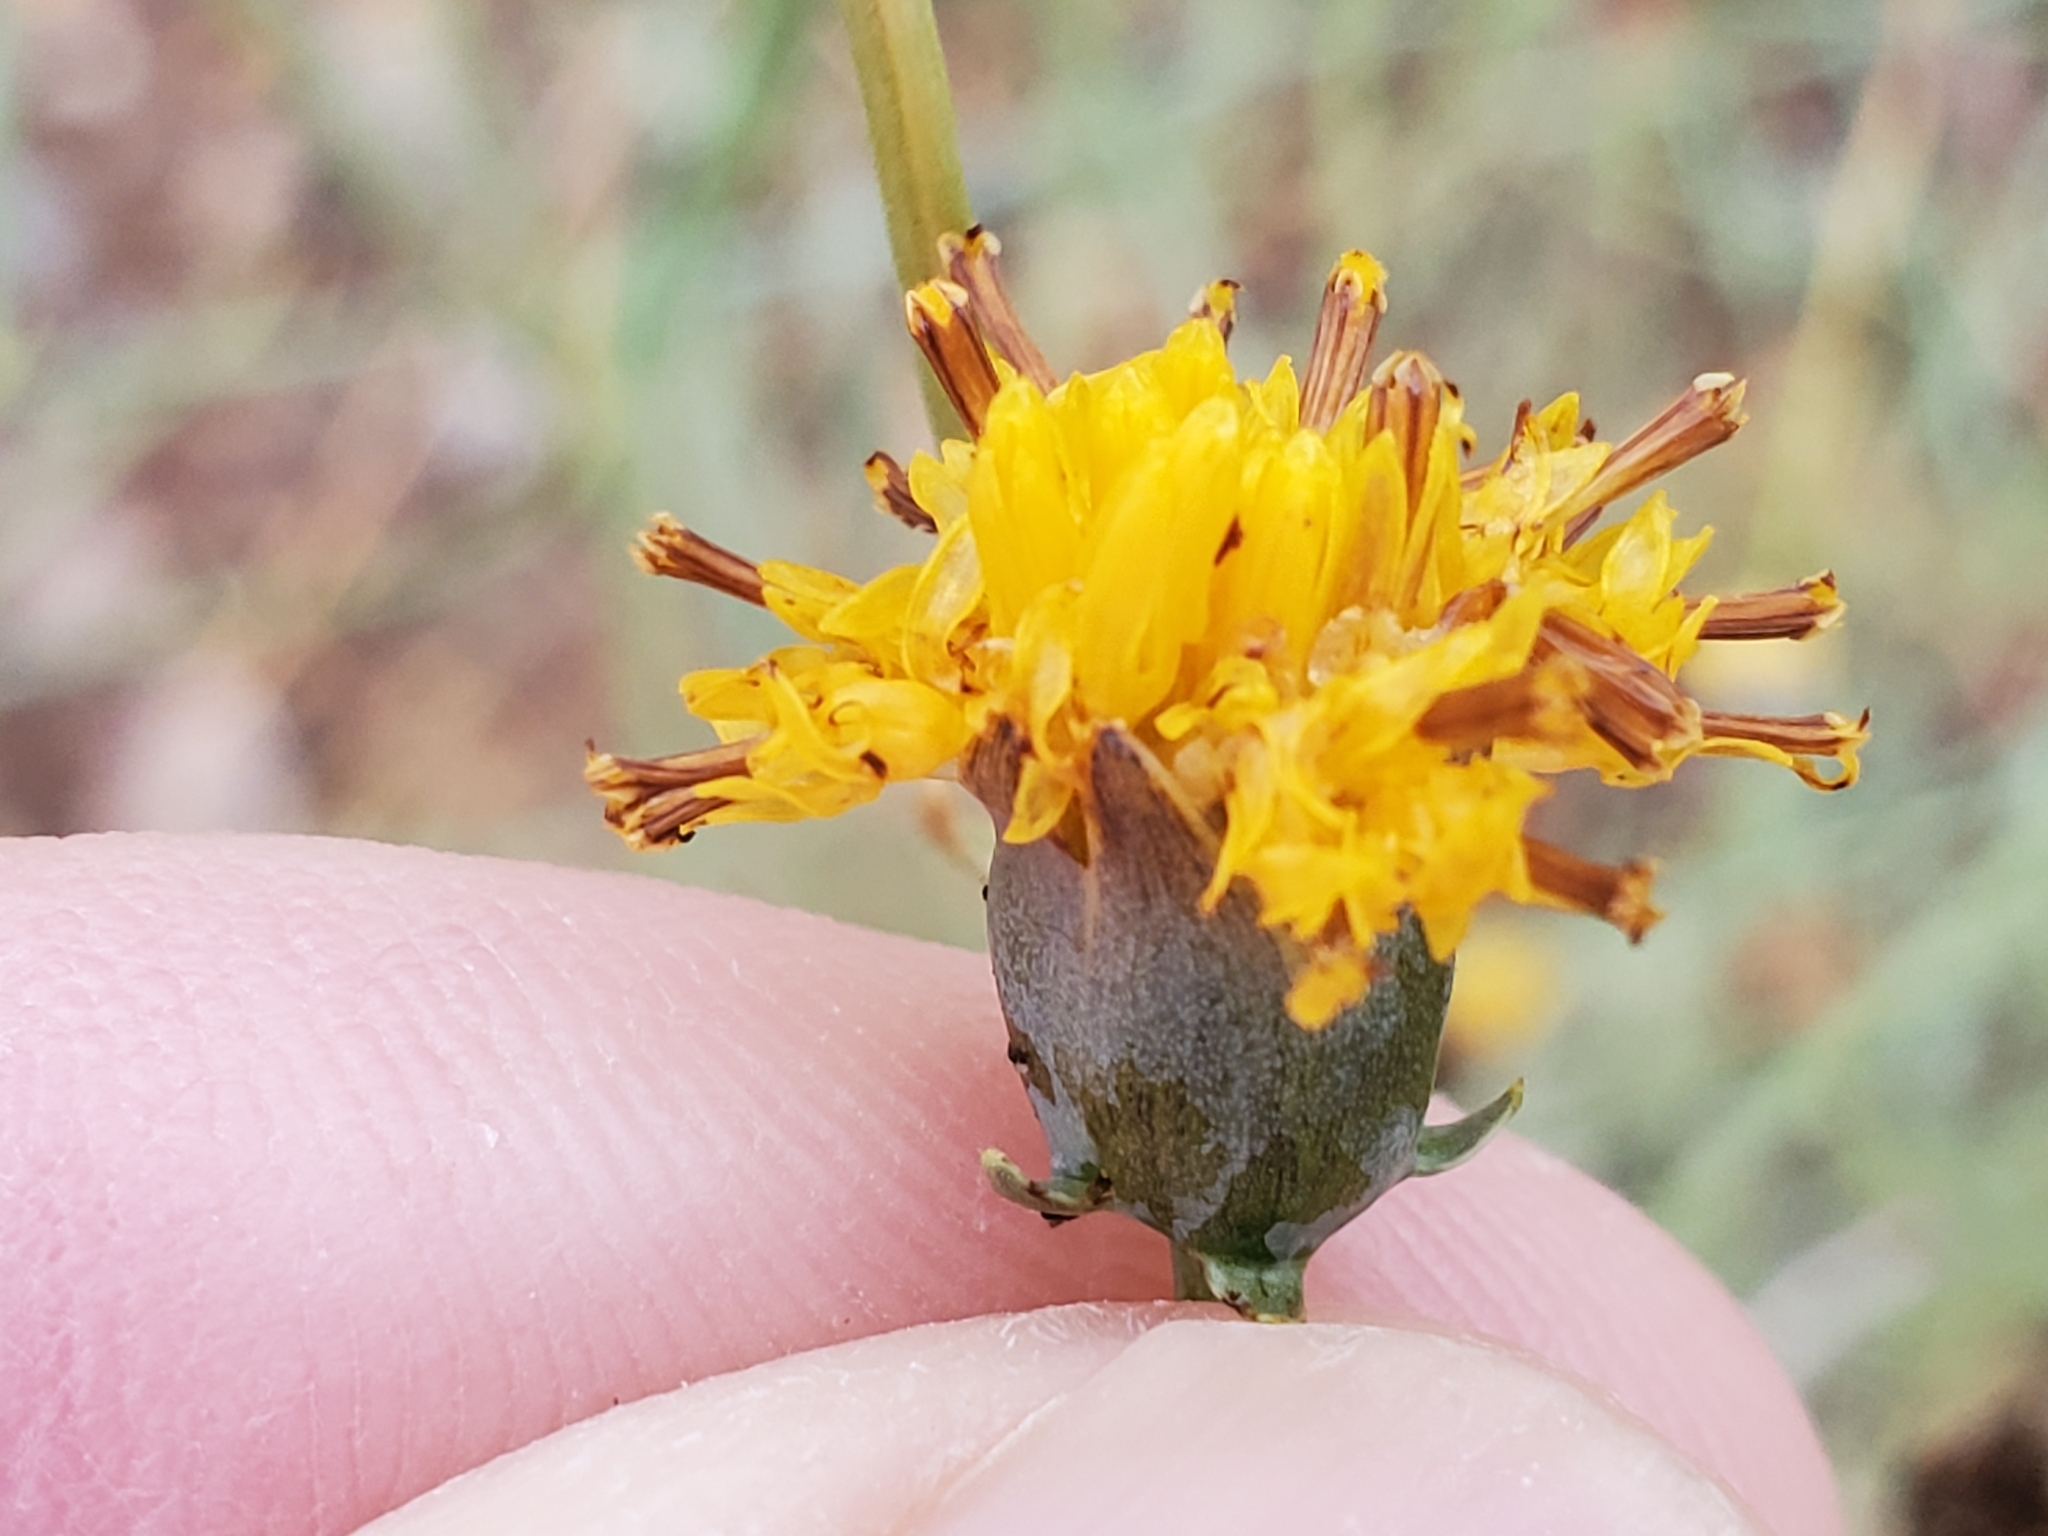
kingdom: Plantae
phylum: Tracheophyta
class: Magnoliopsida
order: Asterales
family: Asteraceae
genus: Thelesperma
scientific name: Thelesperma megapotamicum
